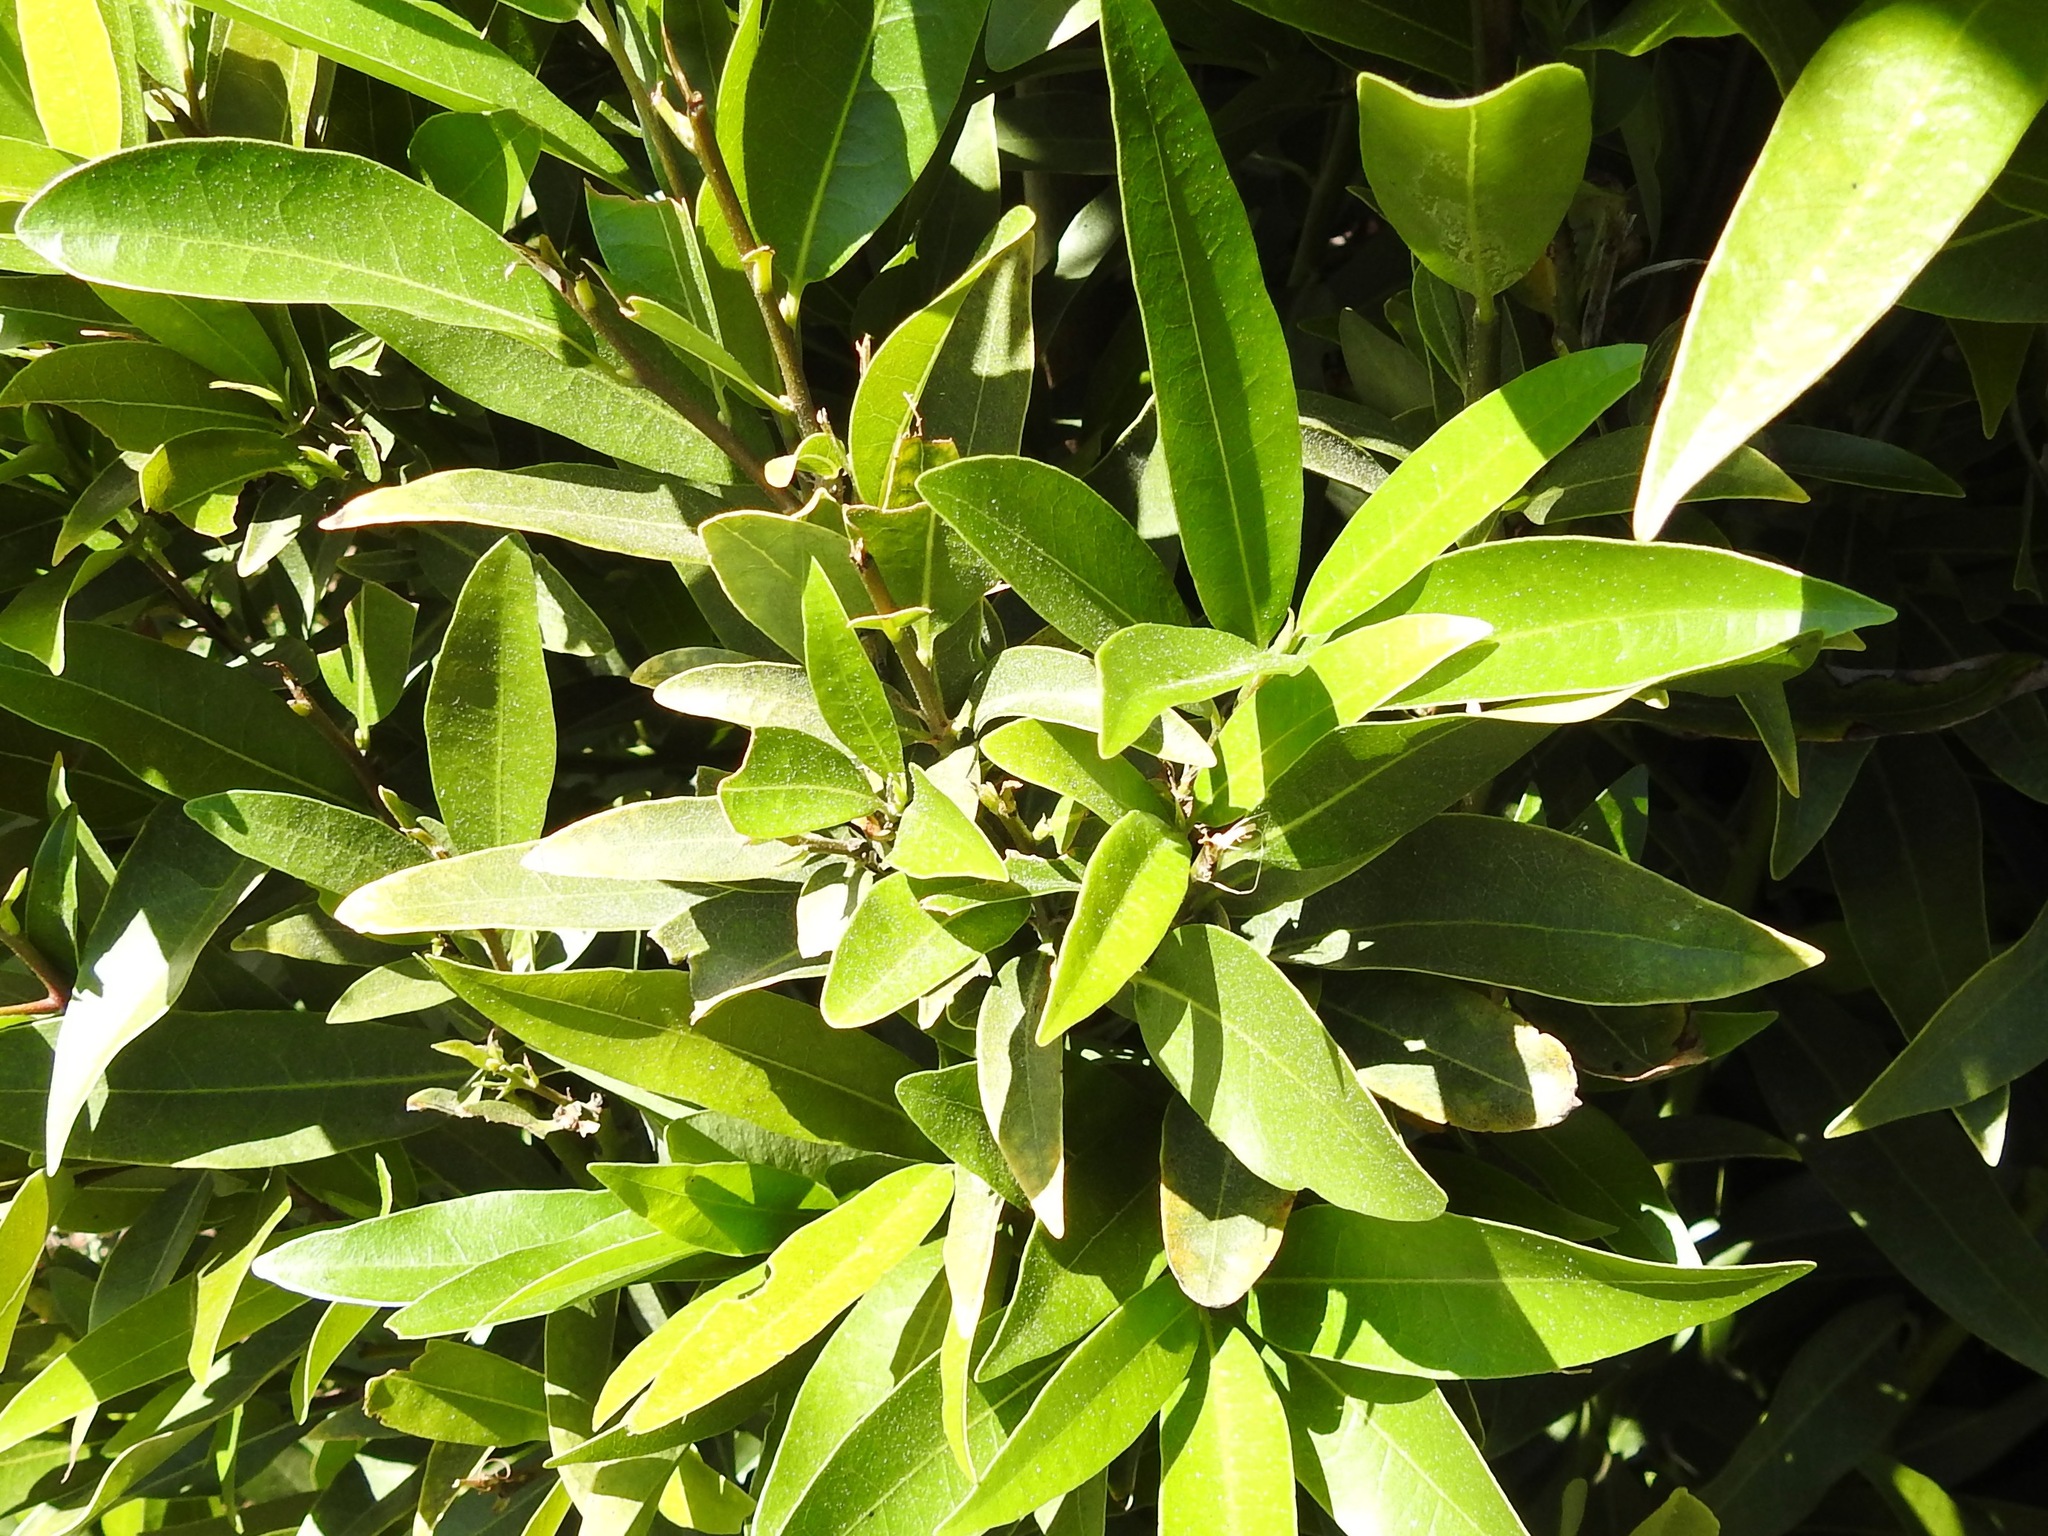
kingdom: Plantae
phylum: Tracheophyta
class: Magnoliopsida
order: Laurales
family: Lauraceae
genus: Umbellularia
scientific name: Umbellularia californica
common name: California bay
